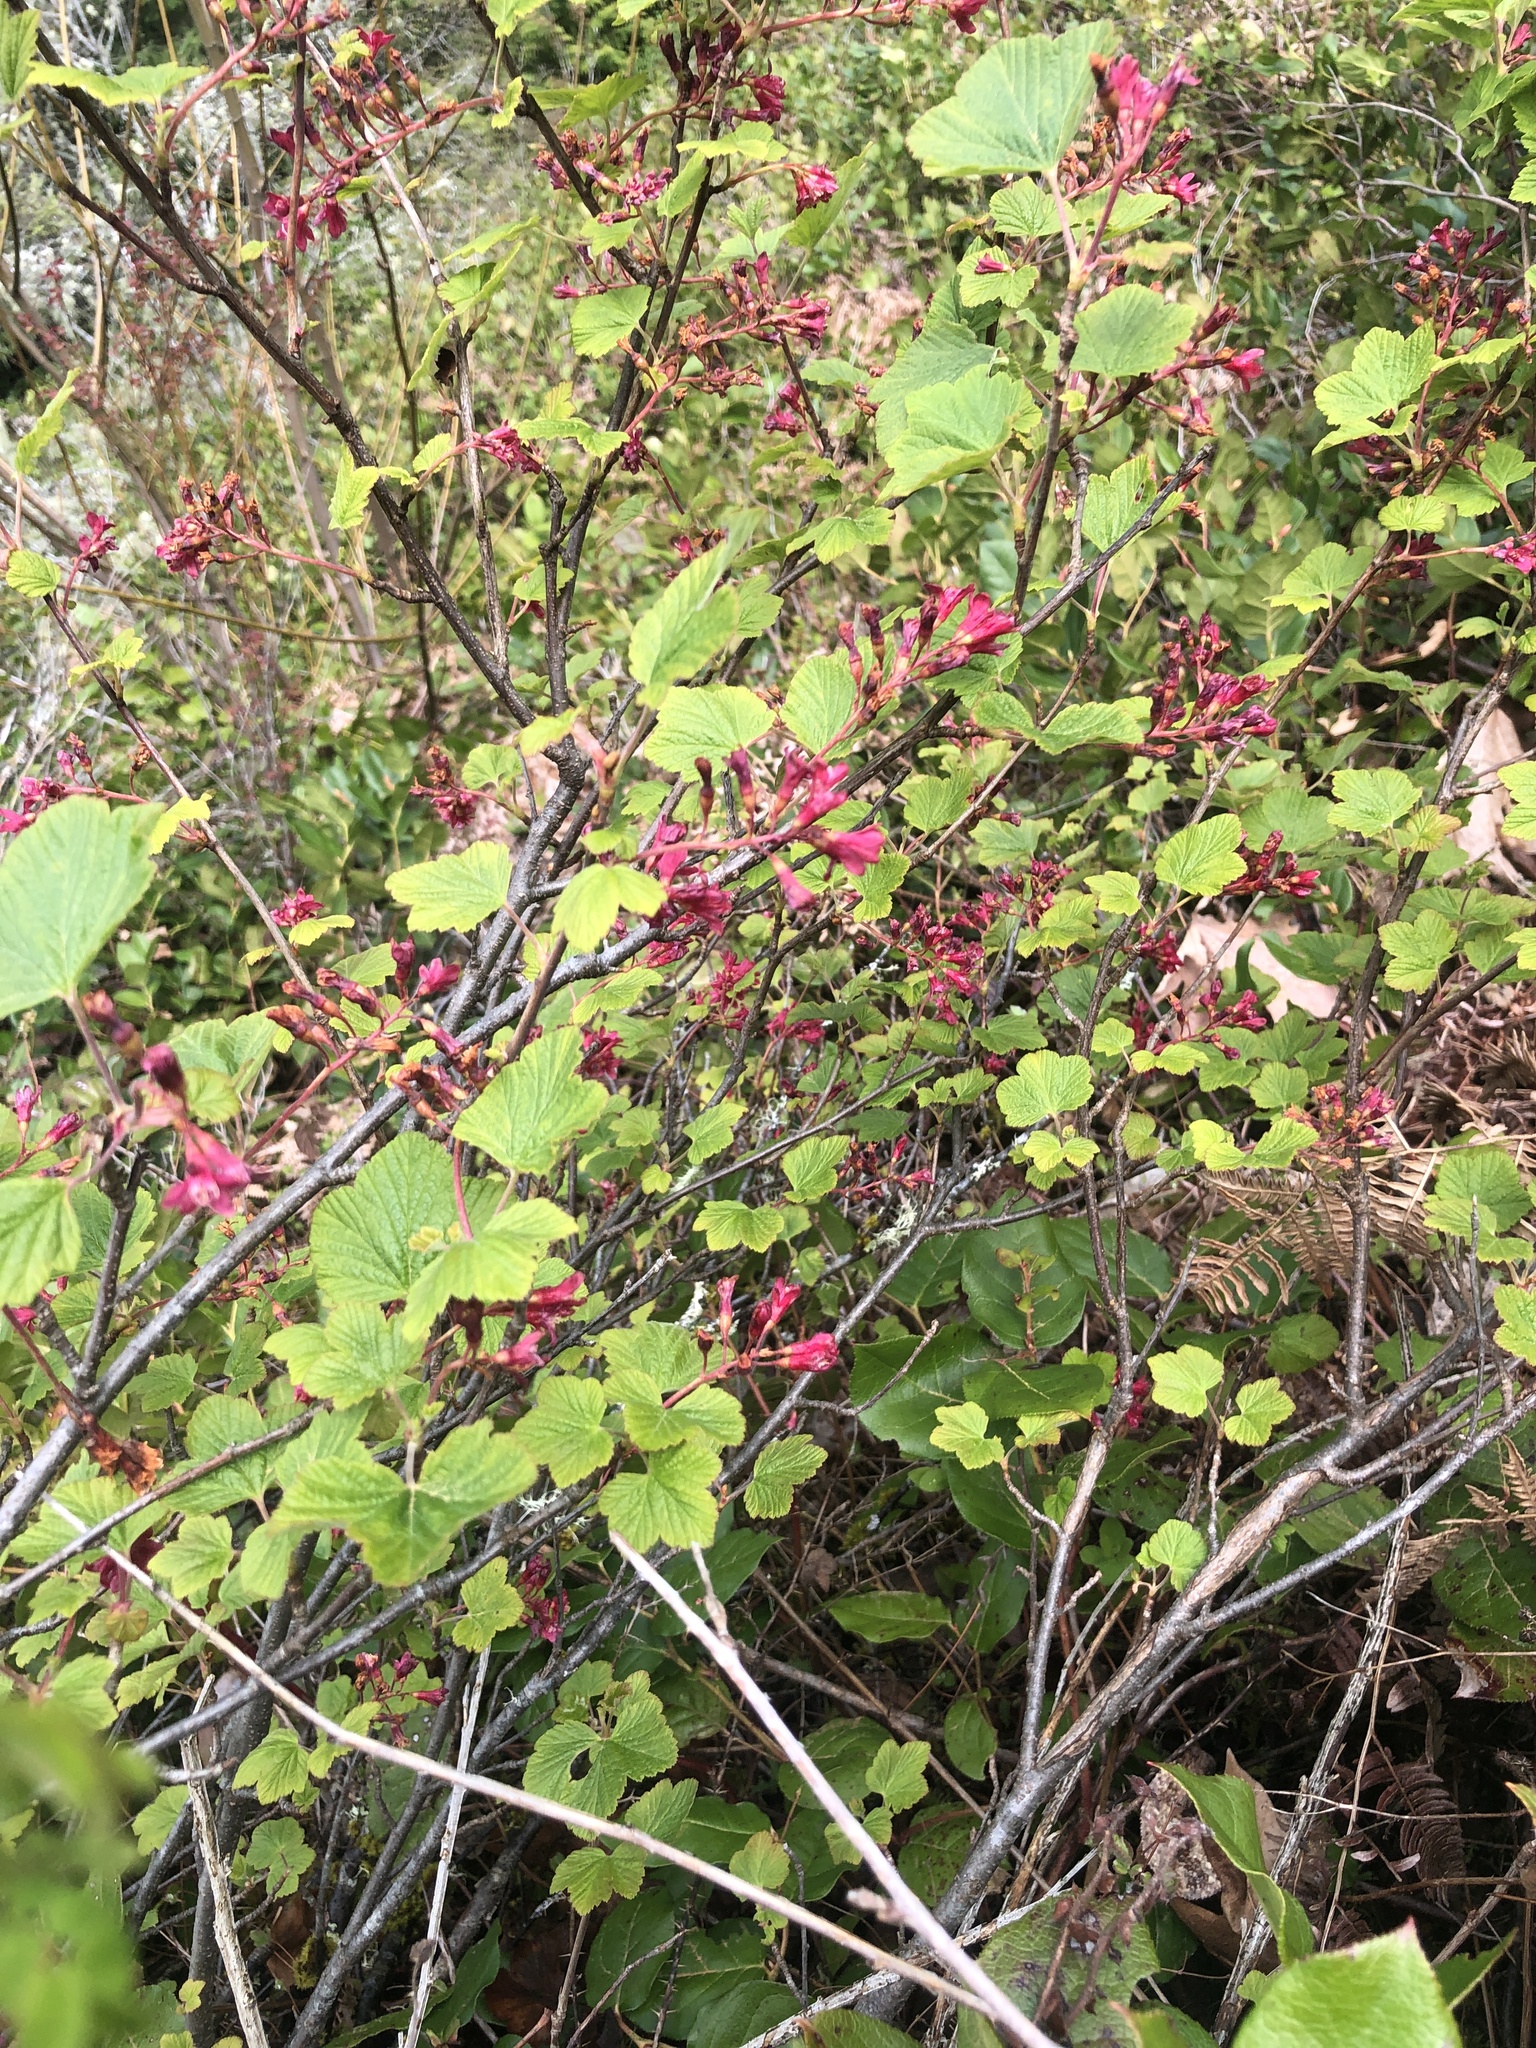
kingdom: Plantae
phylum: Tracheophyta
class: Magnoliopsida
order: Saxifragales
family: Grossulariaceae
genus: Ribes
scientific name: Ribes sanguineum
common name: Flowering currant
